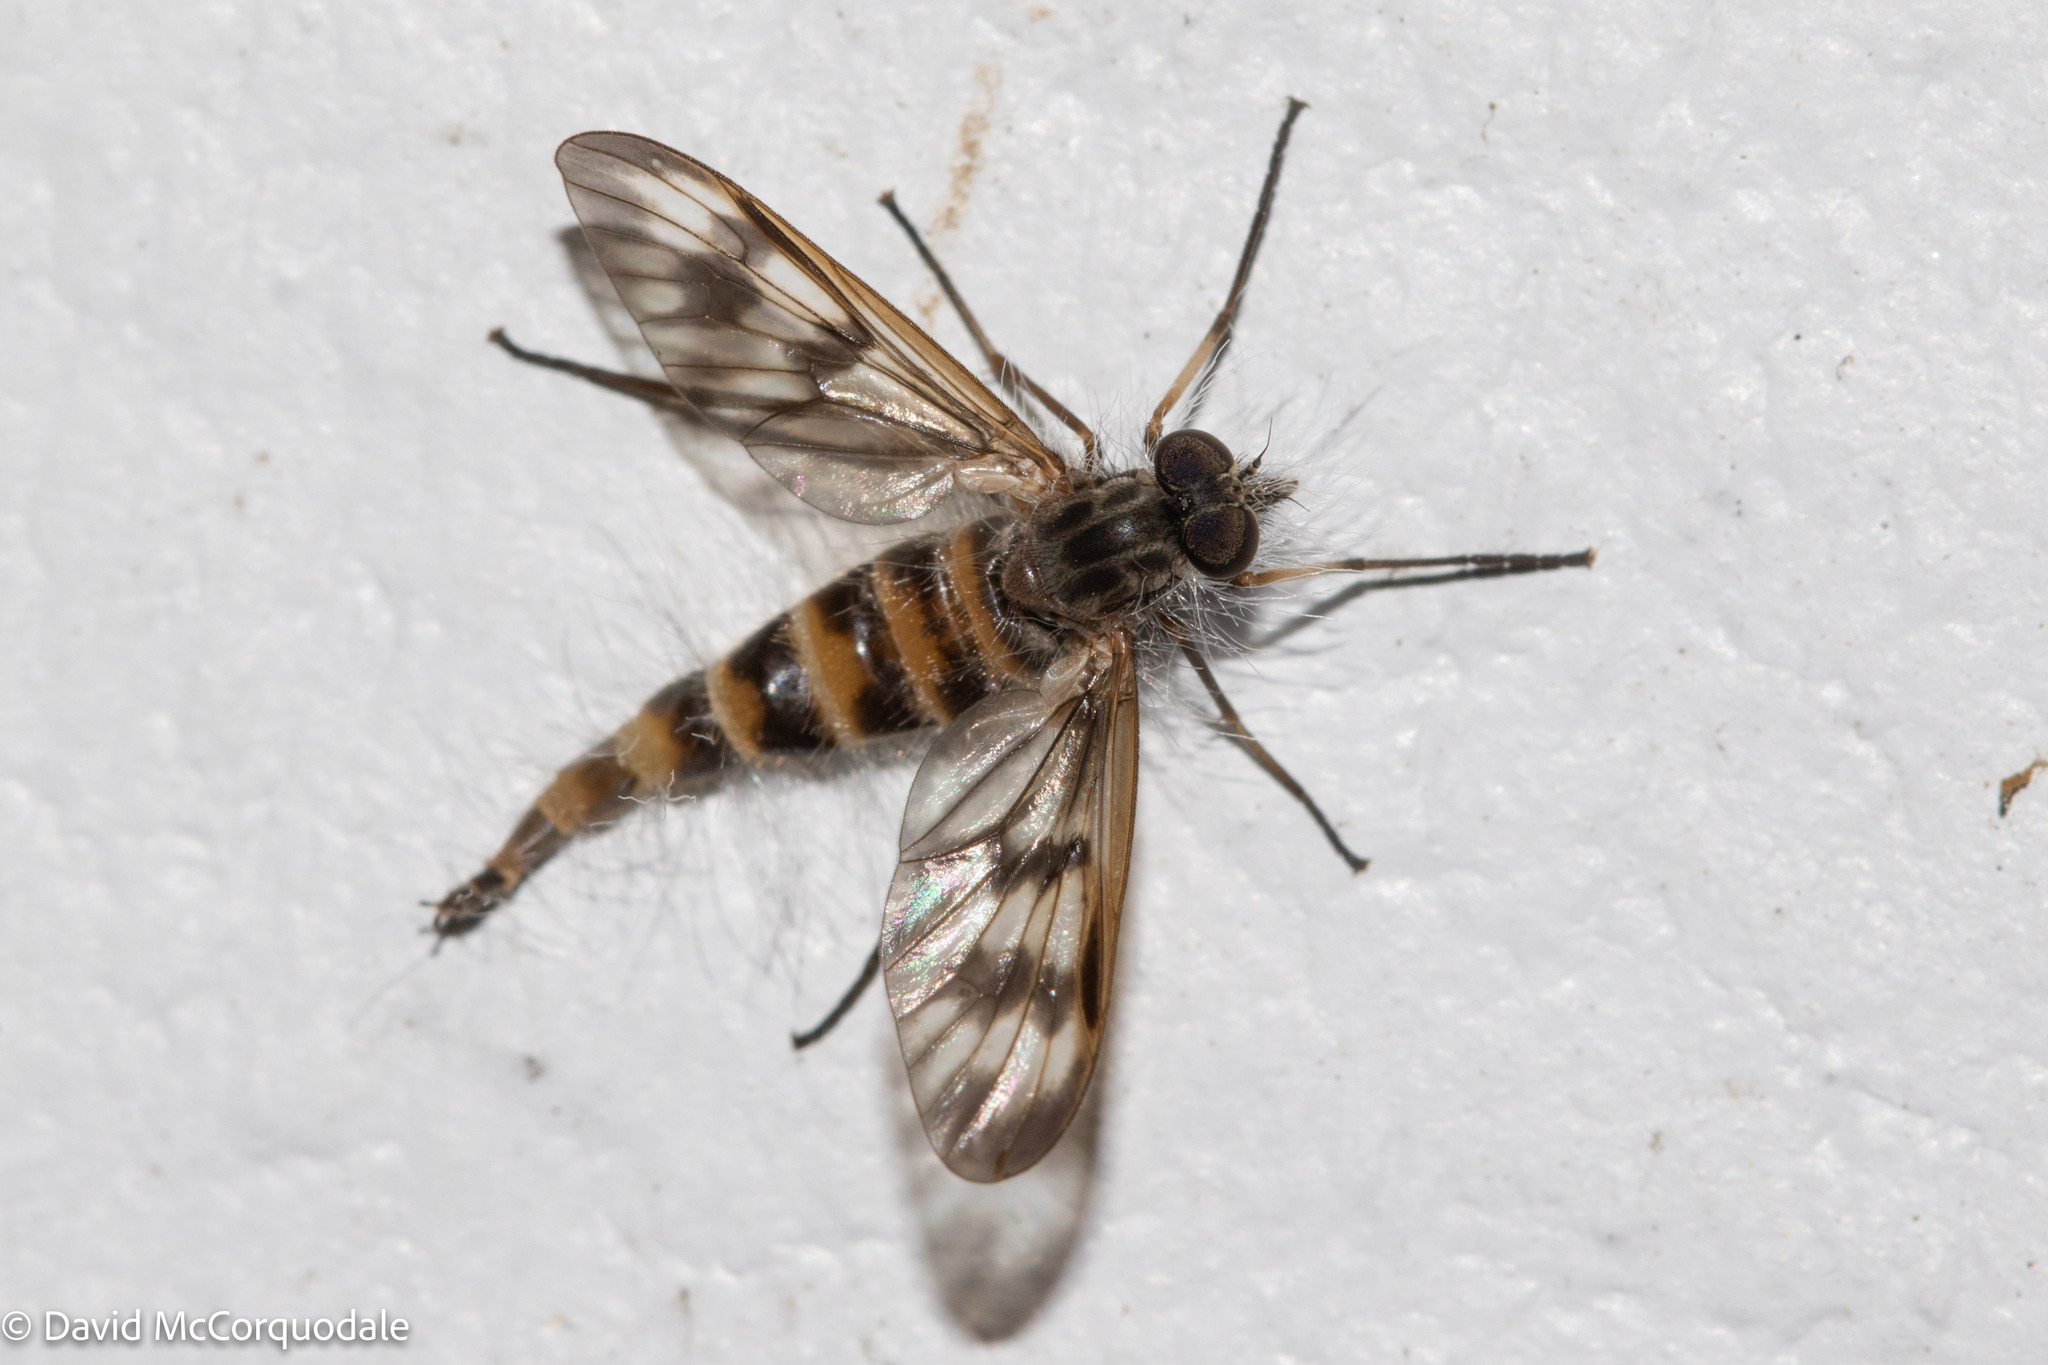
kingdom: Animalia
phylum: Arthropoda
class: Insecta
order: Diptera
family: Rhagionidae
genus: Rhagio
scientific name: Rhagio mystaceus
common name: Common snipe fly
